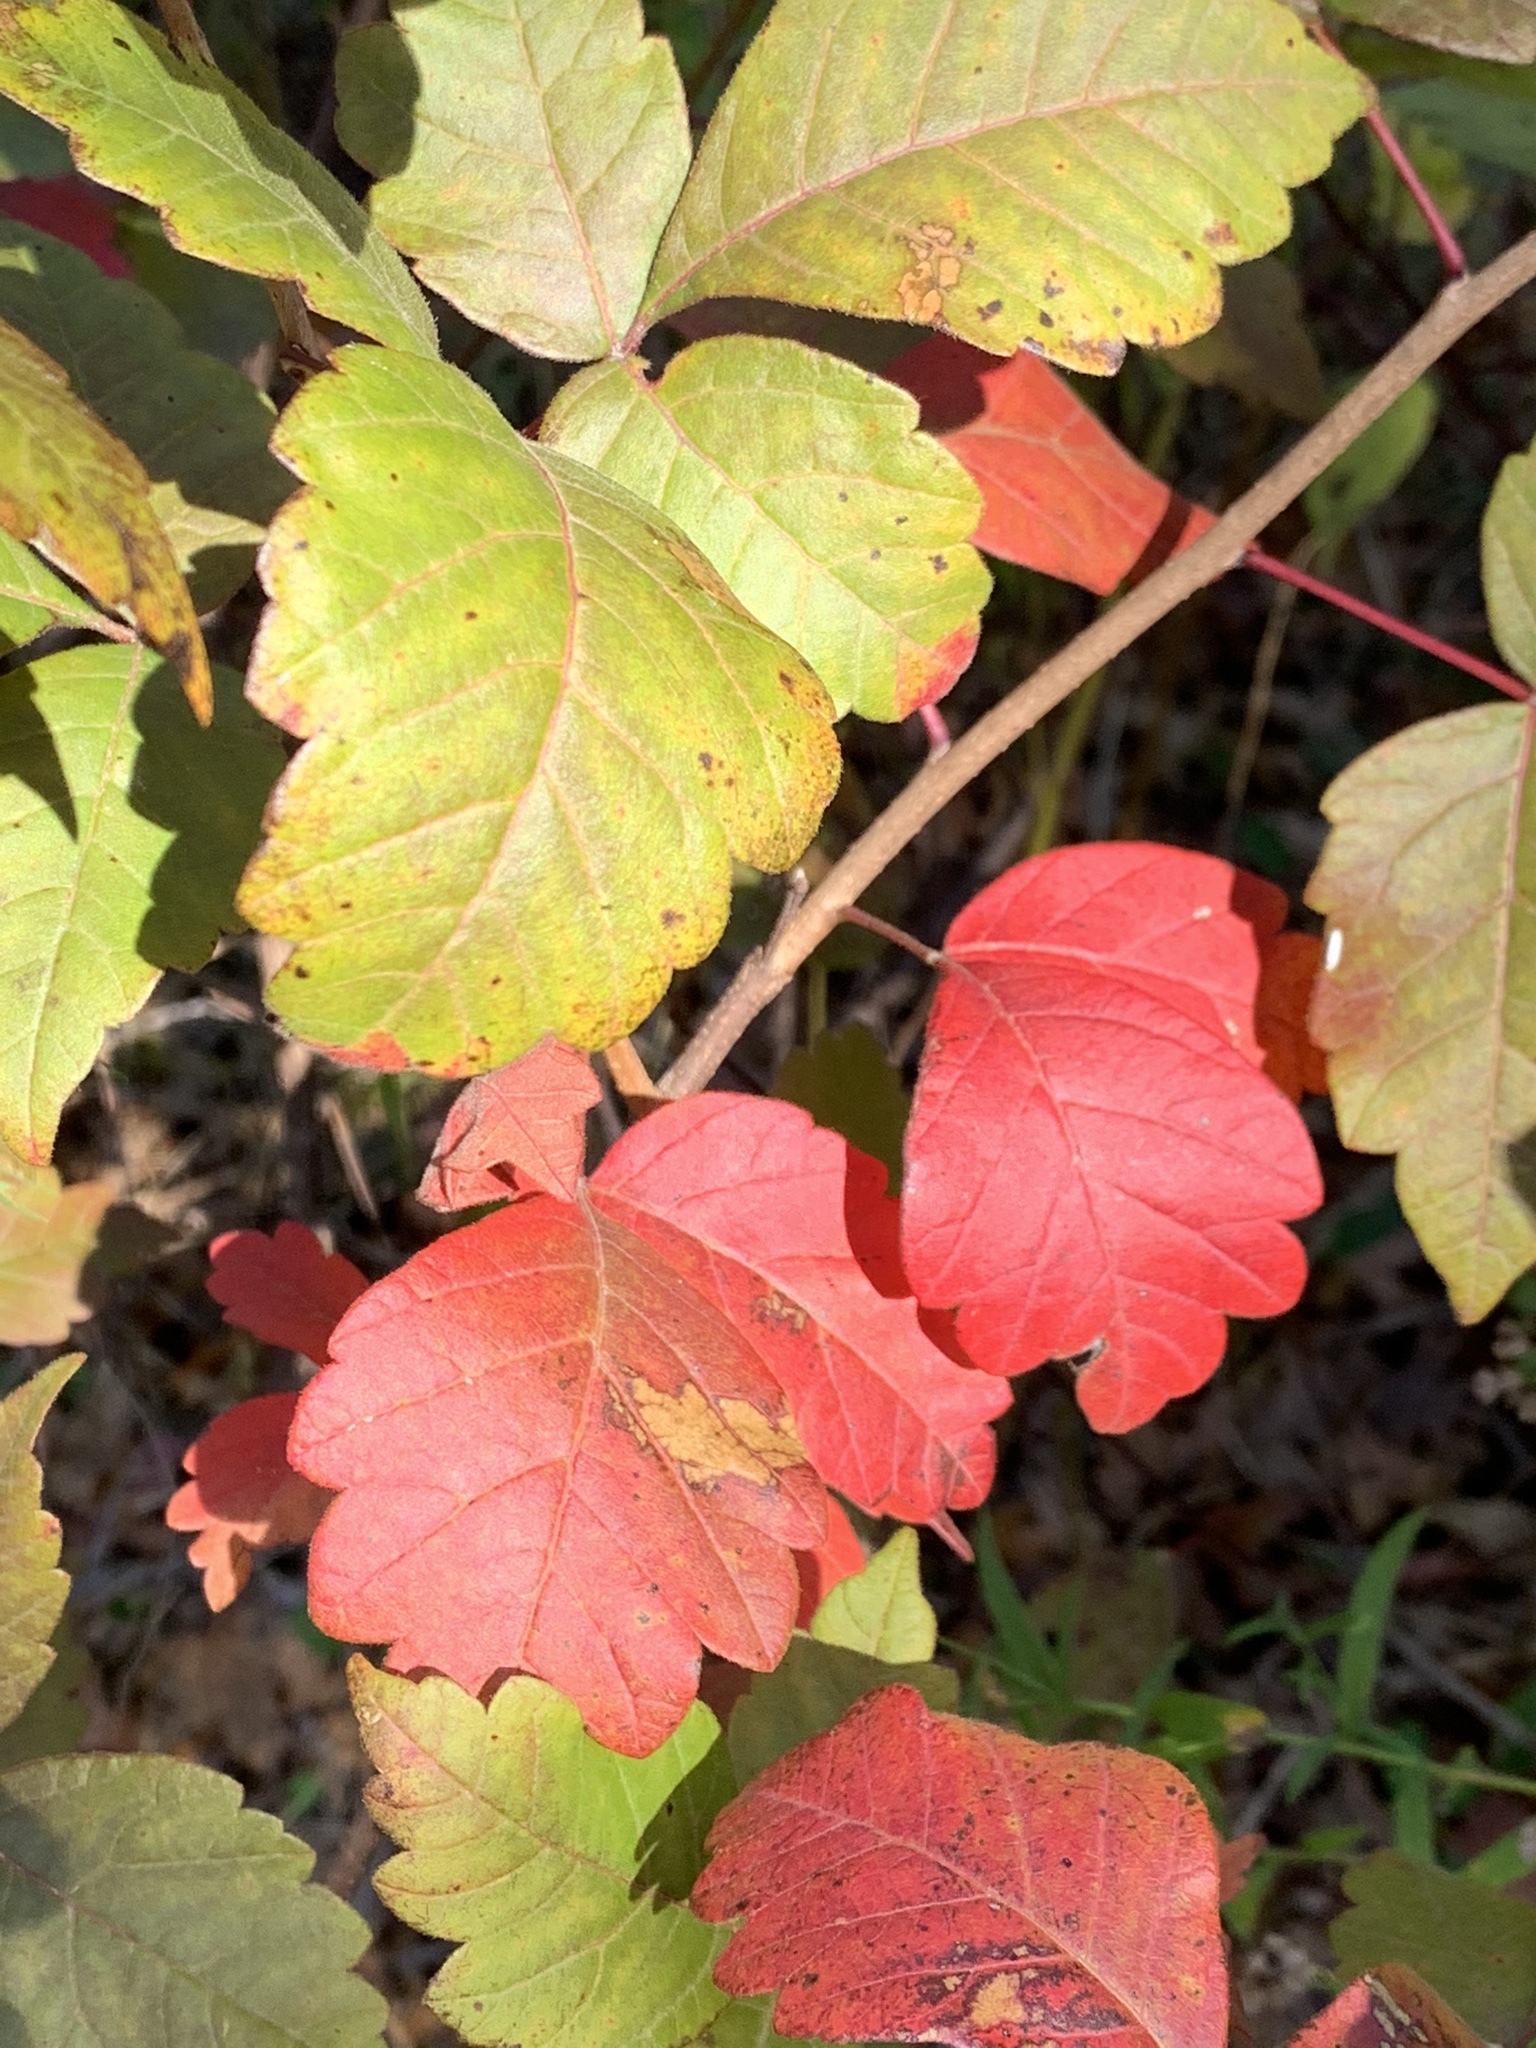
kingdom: Plantae
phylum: Tracheophyta
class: Magnoliopsida
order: Sapindales
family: Anacardiaceae
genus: Rhus
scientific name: Rhus aromatica
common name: Aromatic sumac
